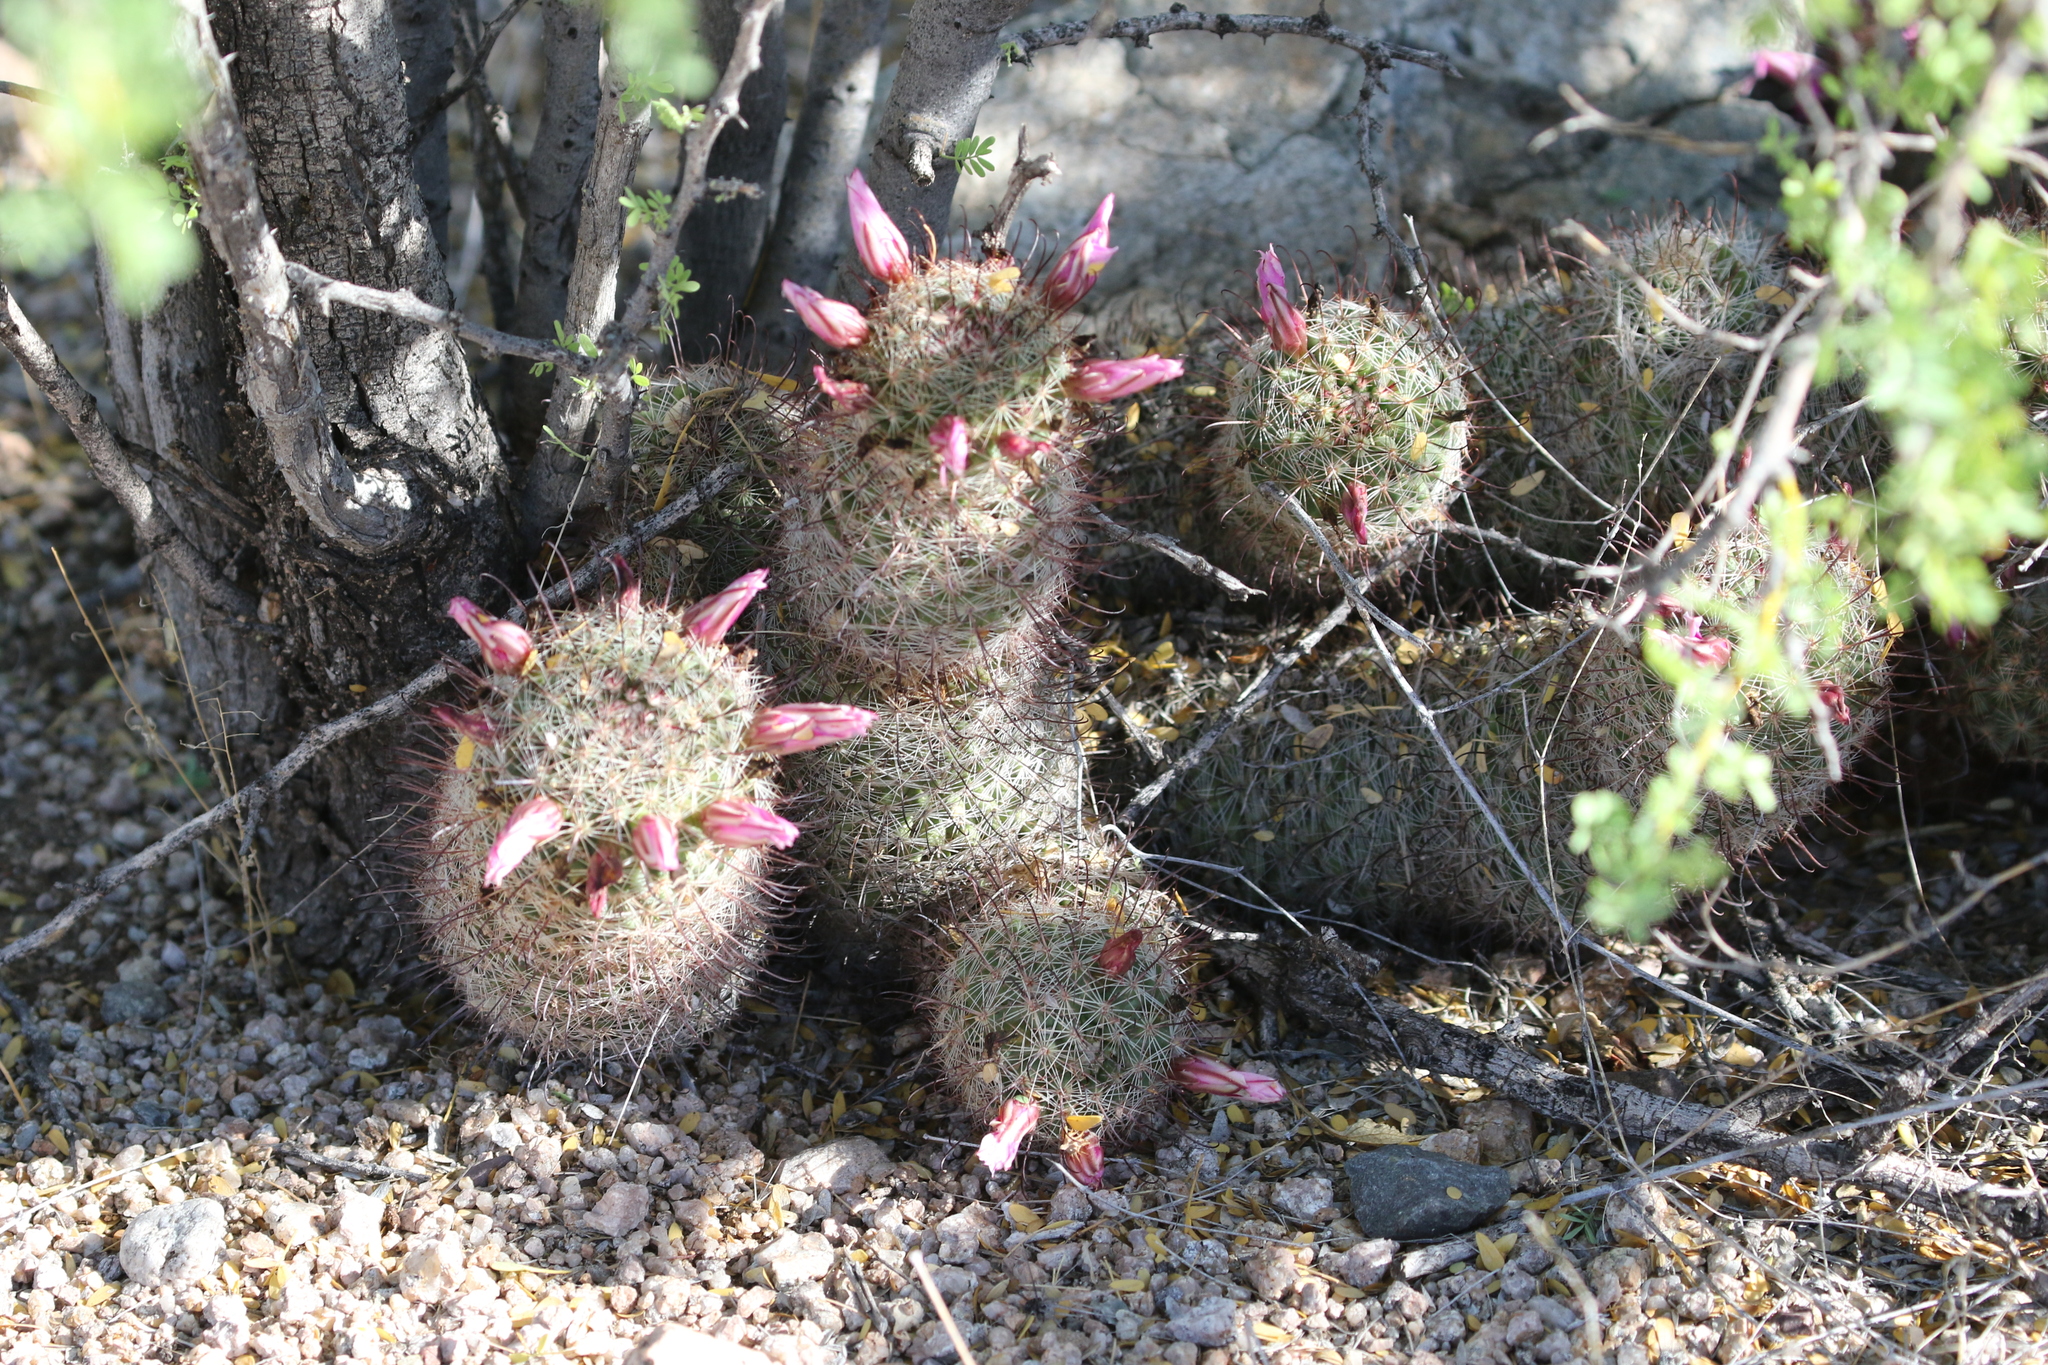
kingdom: Plantae
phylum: Tracheophyta
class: Magnoliopsida
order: Caryophyllales
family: Cactaceae
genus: Cochemiea
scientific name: Cochemiea grahamii
